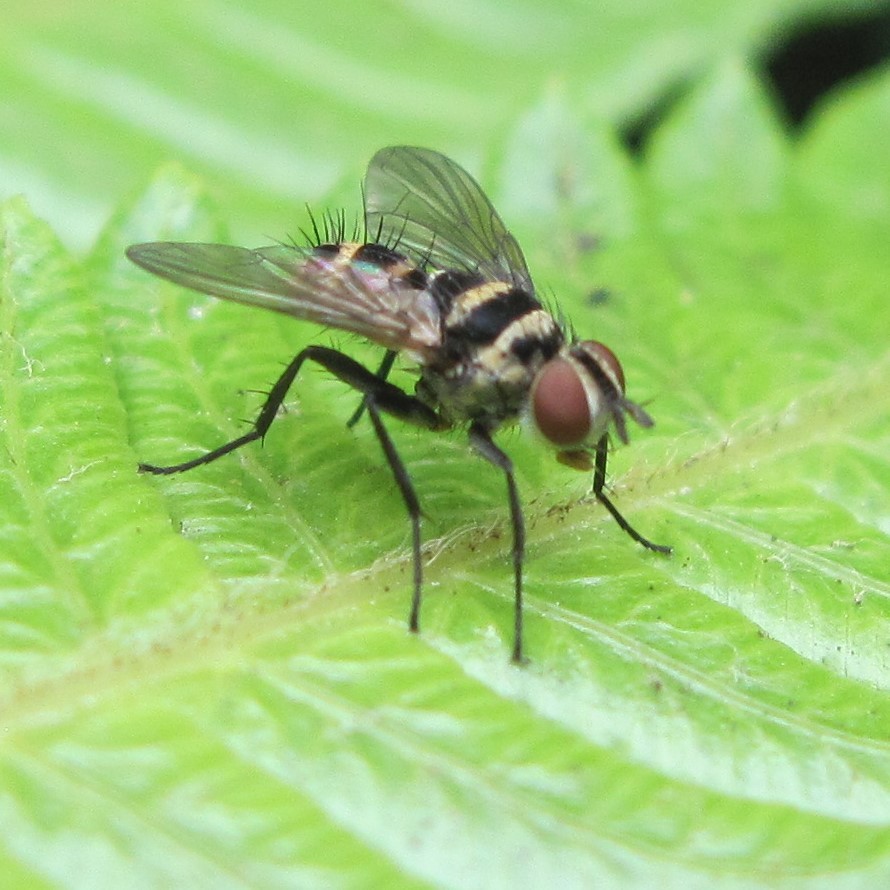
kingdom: Animalia
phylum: Arthropoda
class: Insecta
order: Diptera
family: Tachinidae
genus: Trigonospila
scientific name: Trigonospila brevifacies
